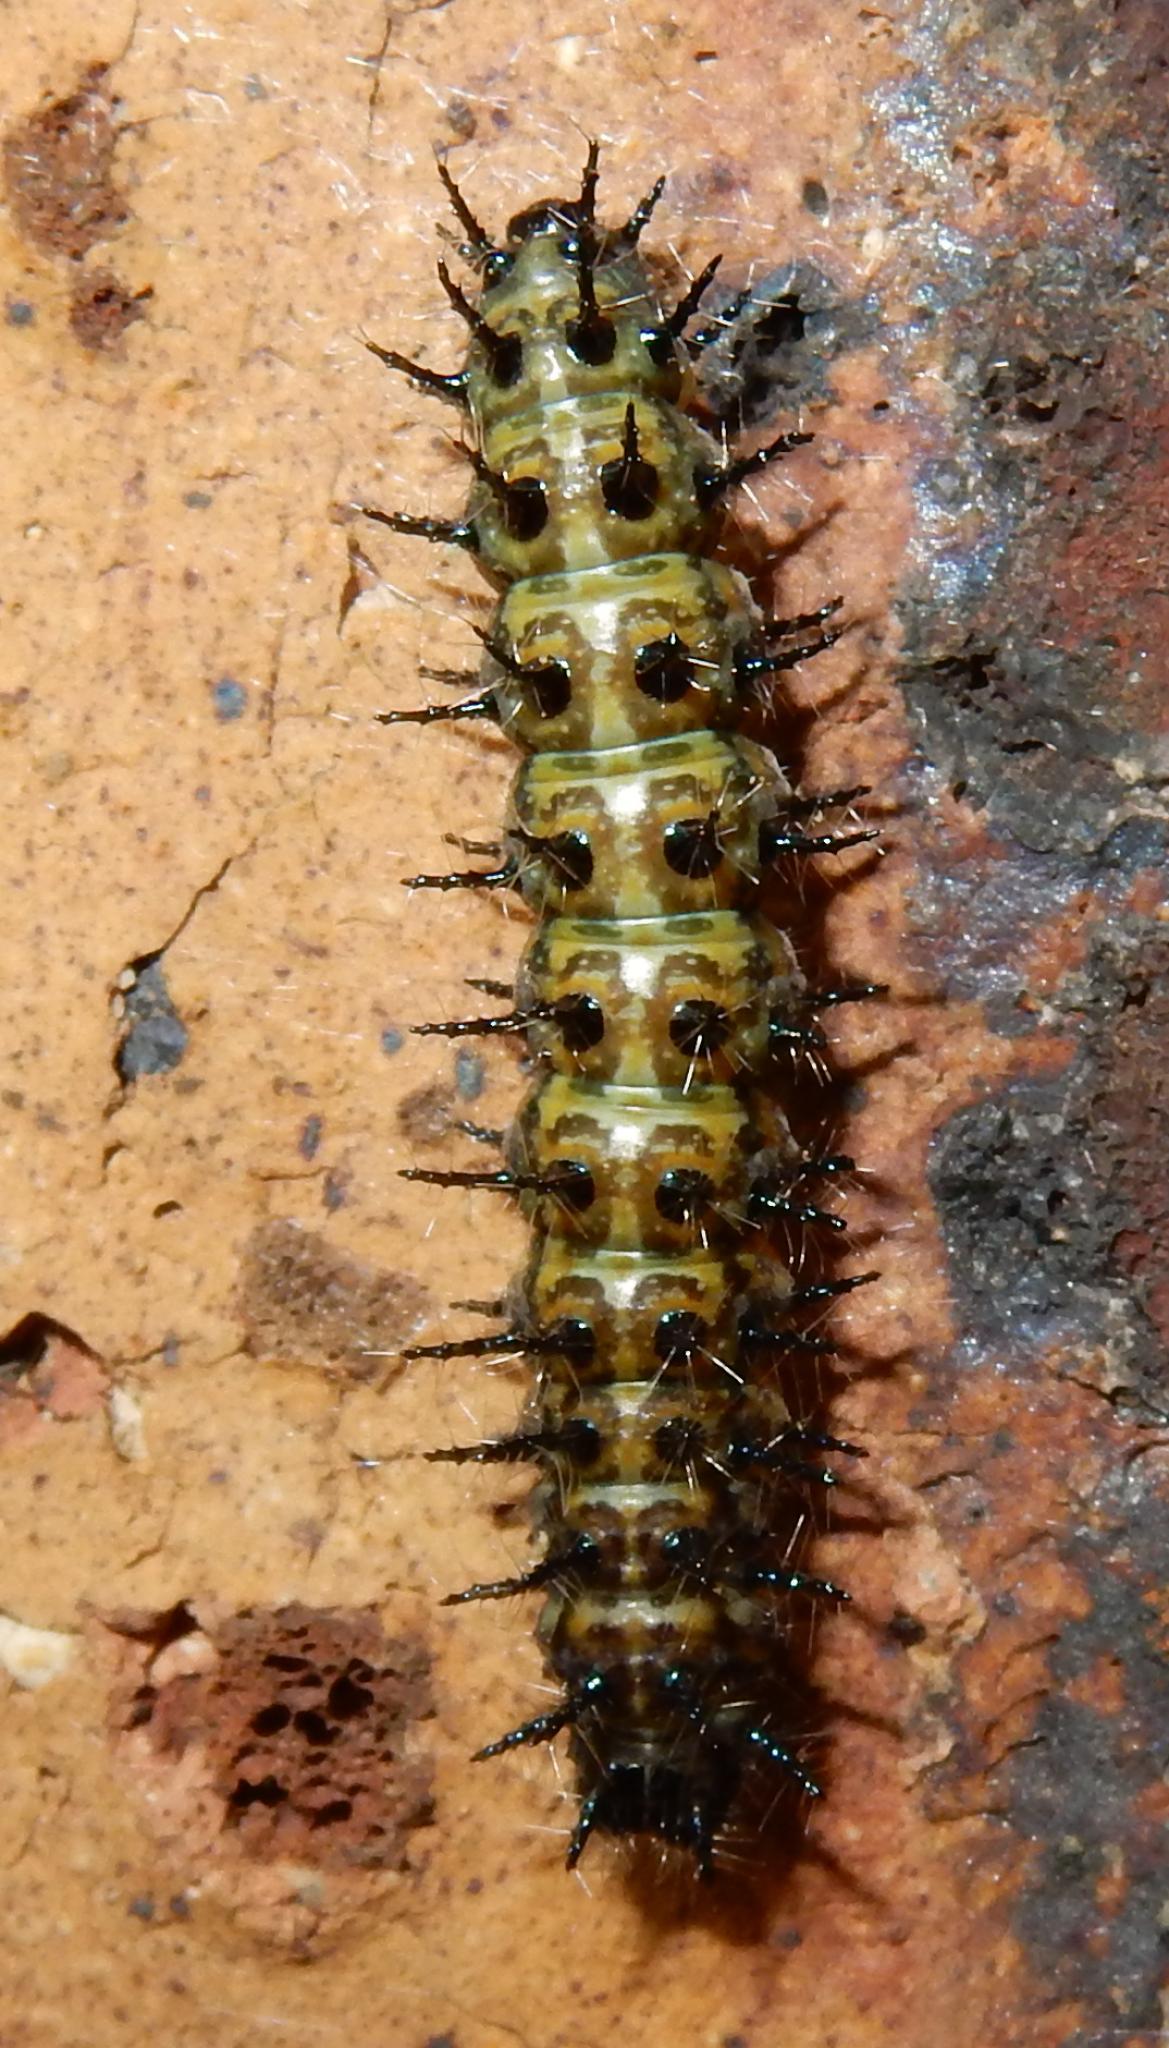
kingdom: Animalia
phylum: Arthropoda
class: Insecta
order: Lepidoptera
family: Nymphalidae
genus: Acraea
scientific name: Acraea horta
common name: Garden acraea
